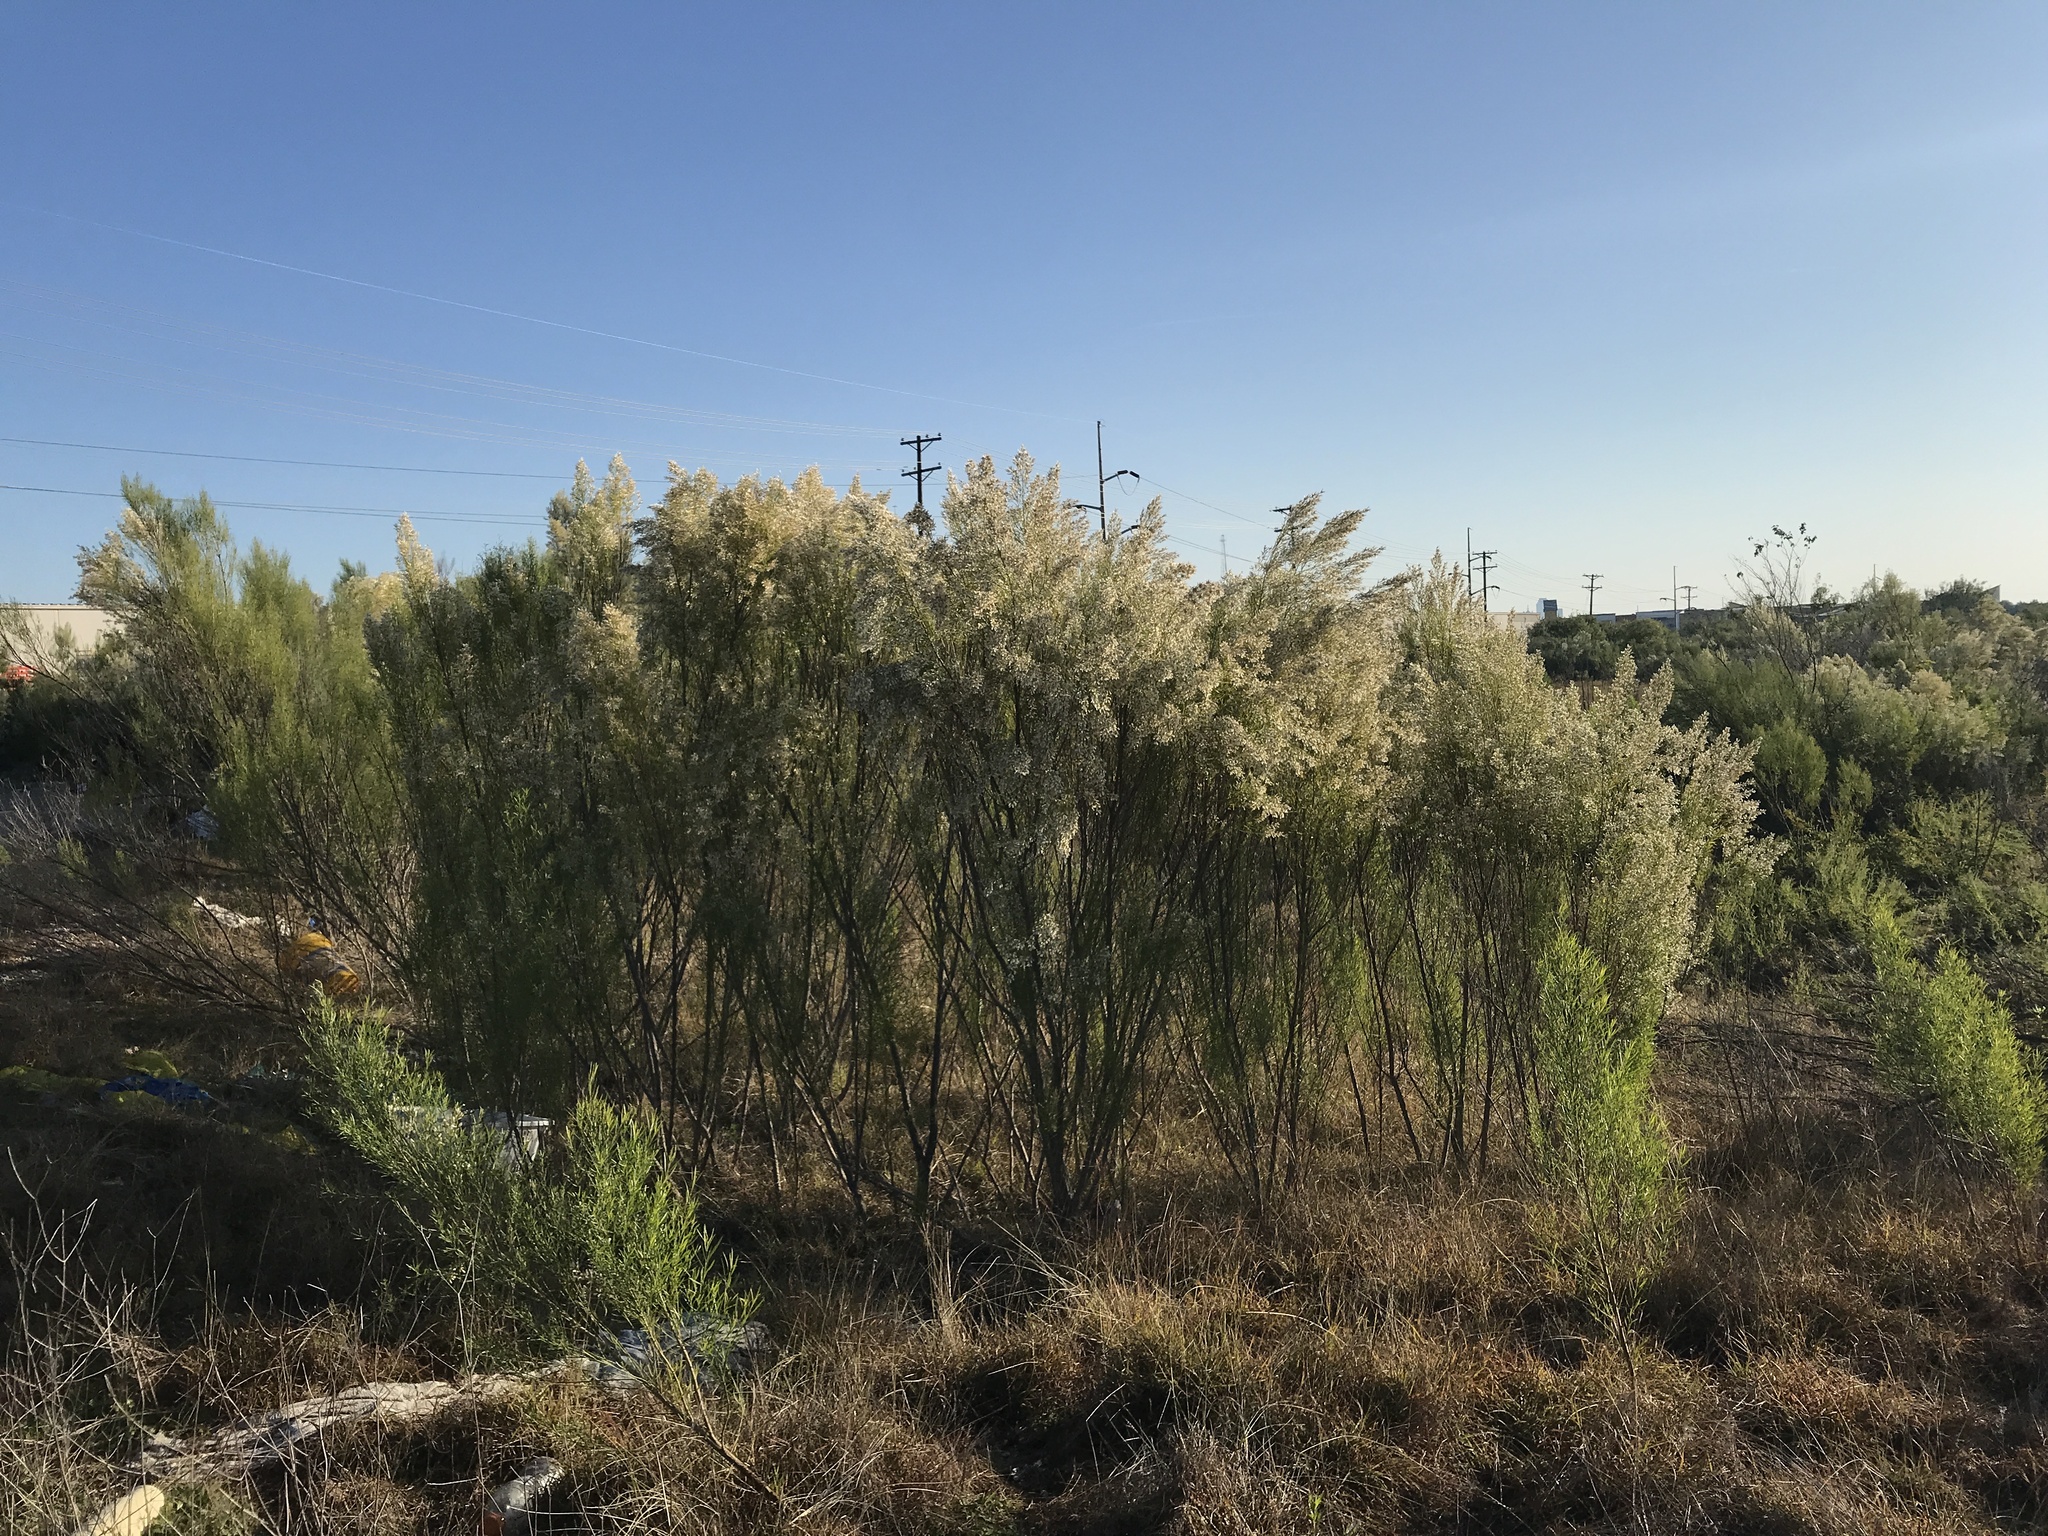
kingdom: Plantae
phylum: Tracheophyta
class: Magnoliopsida
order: Asterales
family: Asteraceae
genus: Baccharis
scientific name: Baccharis neglecta
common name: Roosevelt-weed
